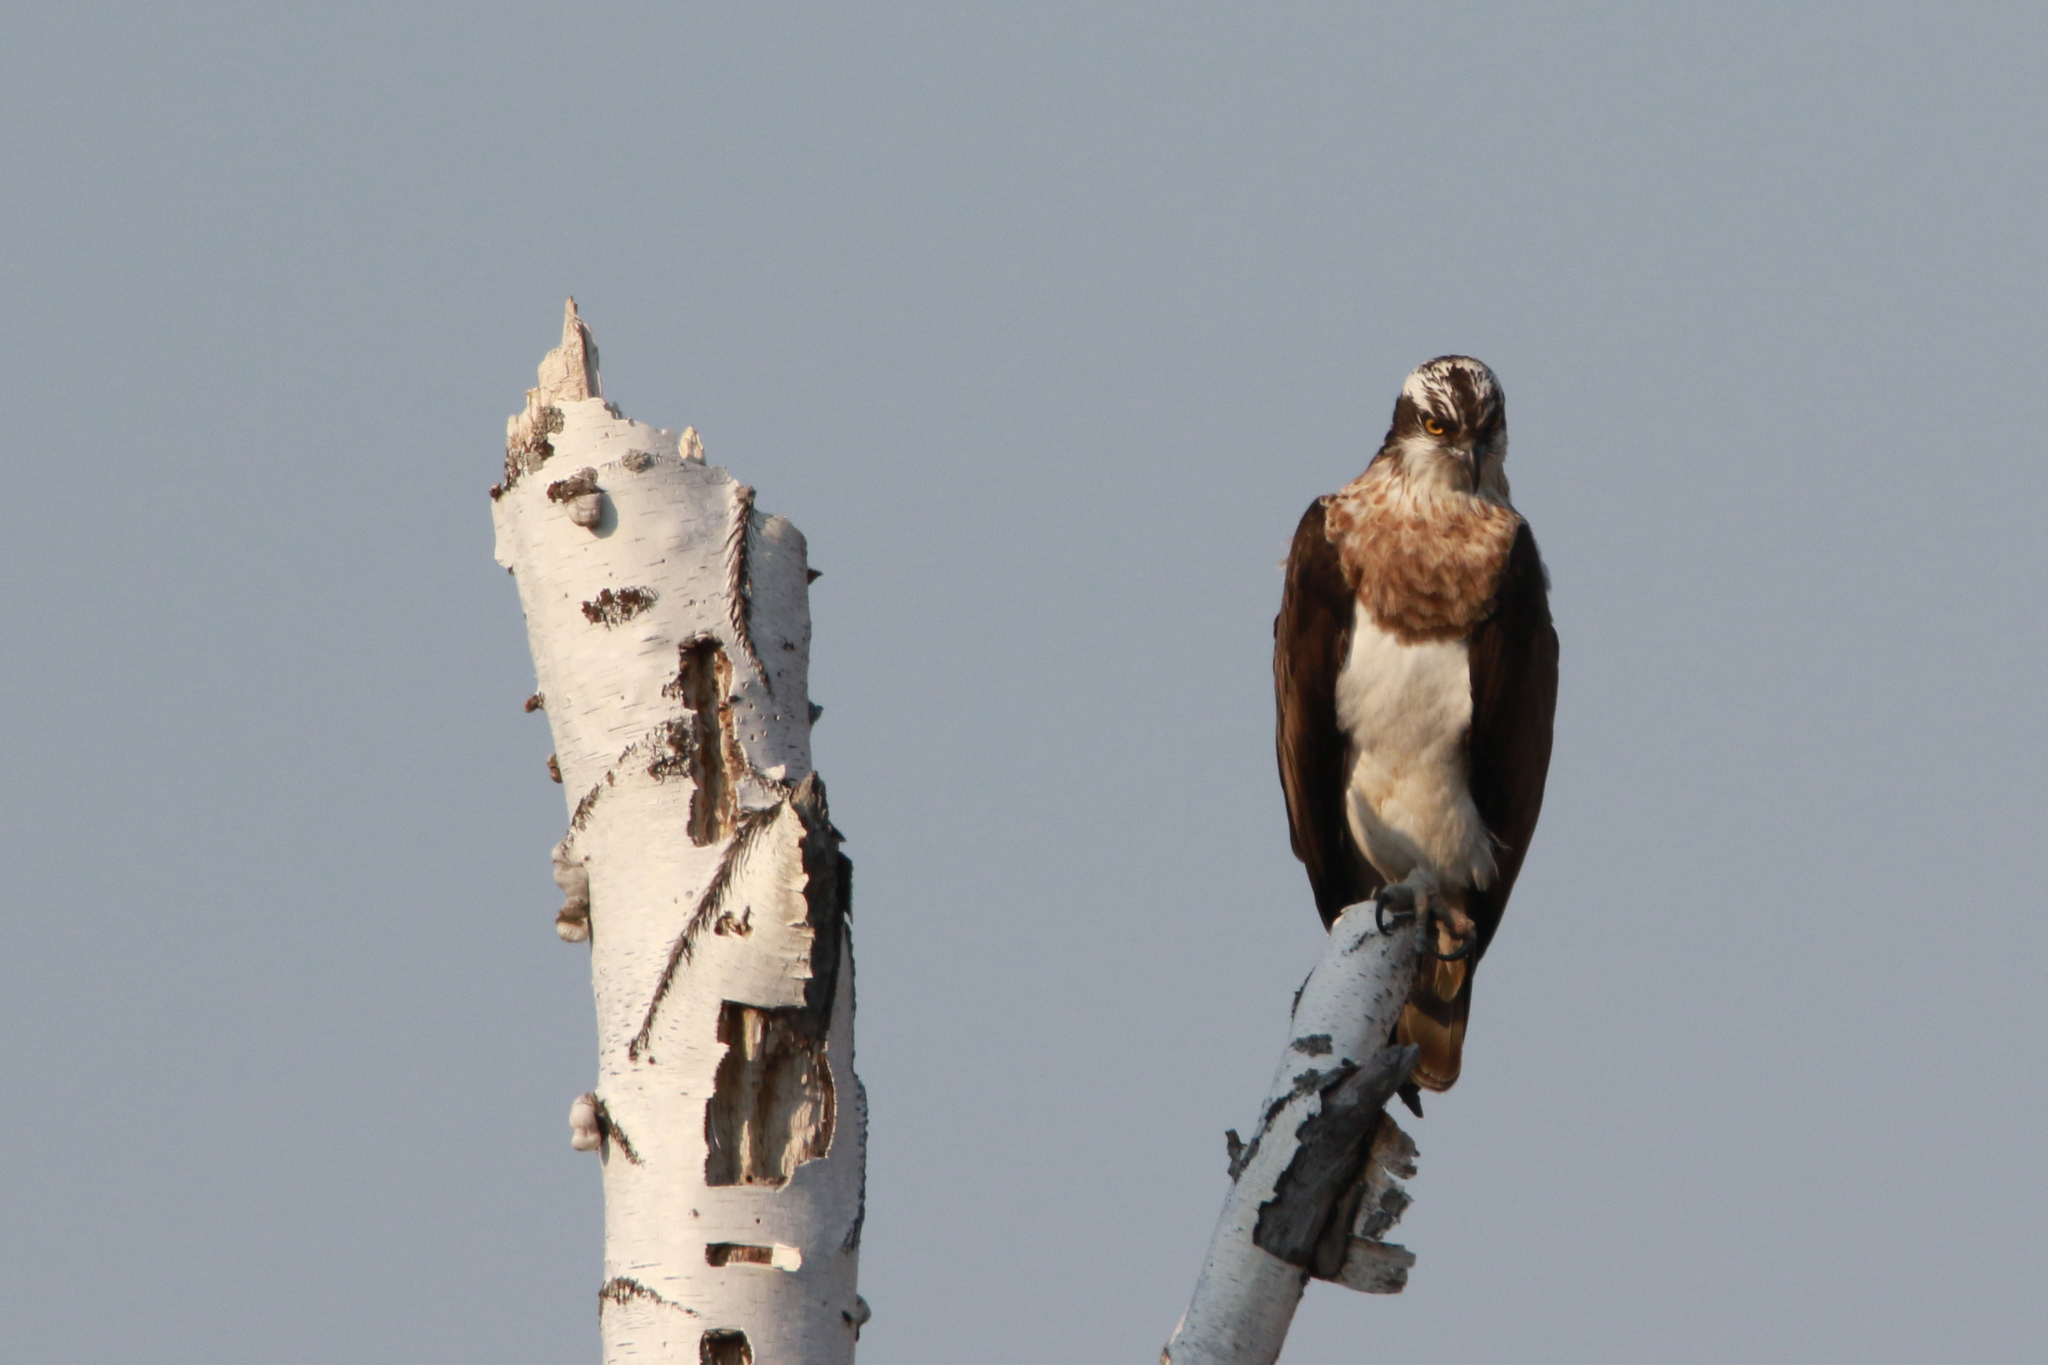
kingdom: Animalia
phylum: Chordata
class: Aves
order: Accipitriformes
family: Pandionidae
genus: Pandion
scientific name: Pandion haliaetus
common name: Osprey
